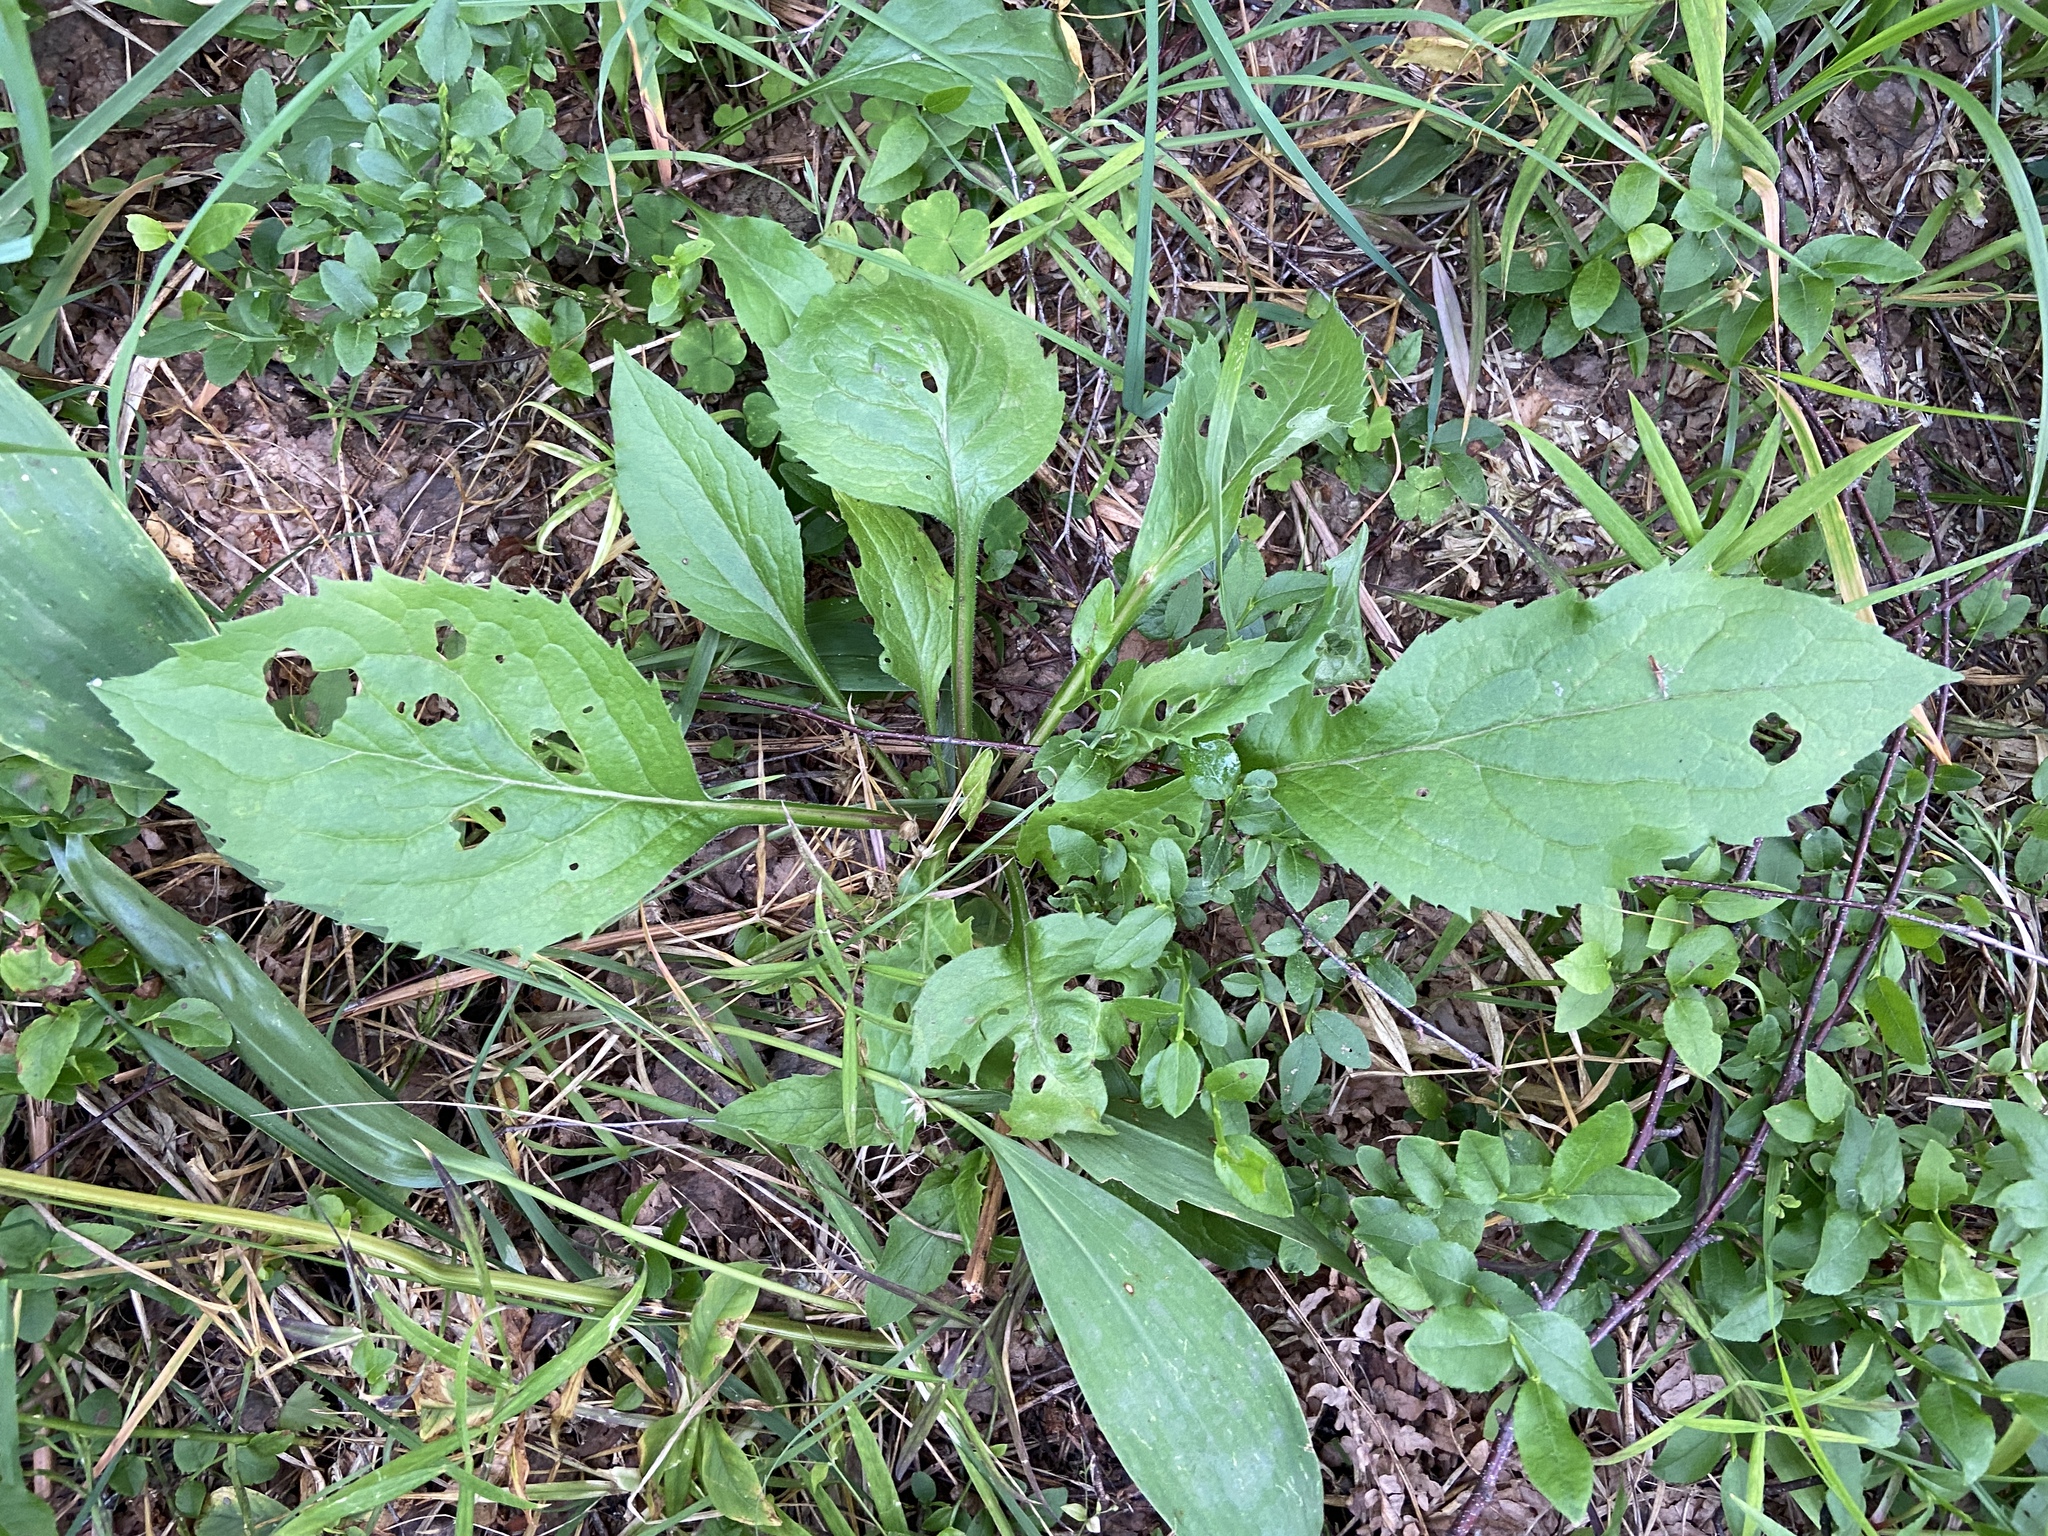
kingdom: Plantae
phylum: Tracheophyta
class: Magnoliopsida
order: Asterales
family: Asteraceae
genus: Solidago
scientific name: Solidago virgaurea
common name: Goldenrod
